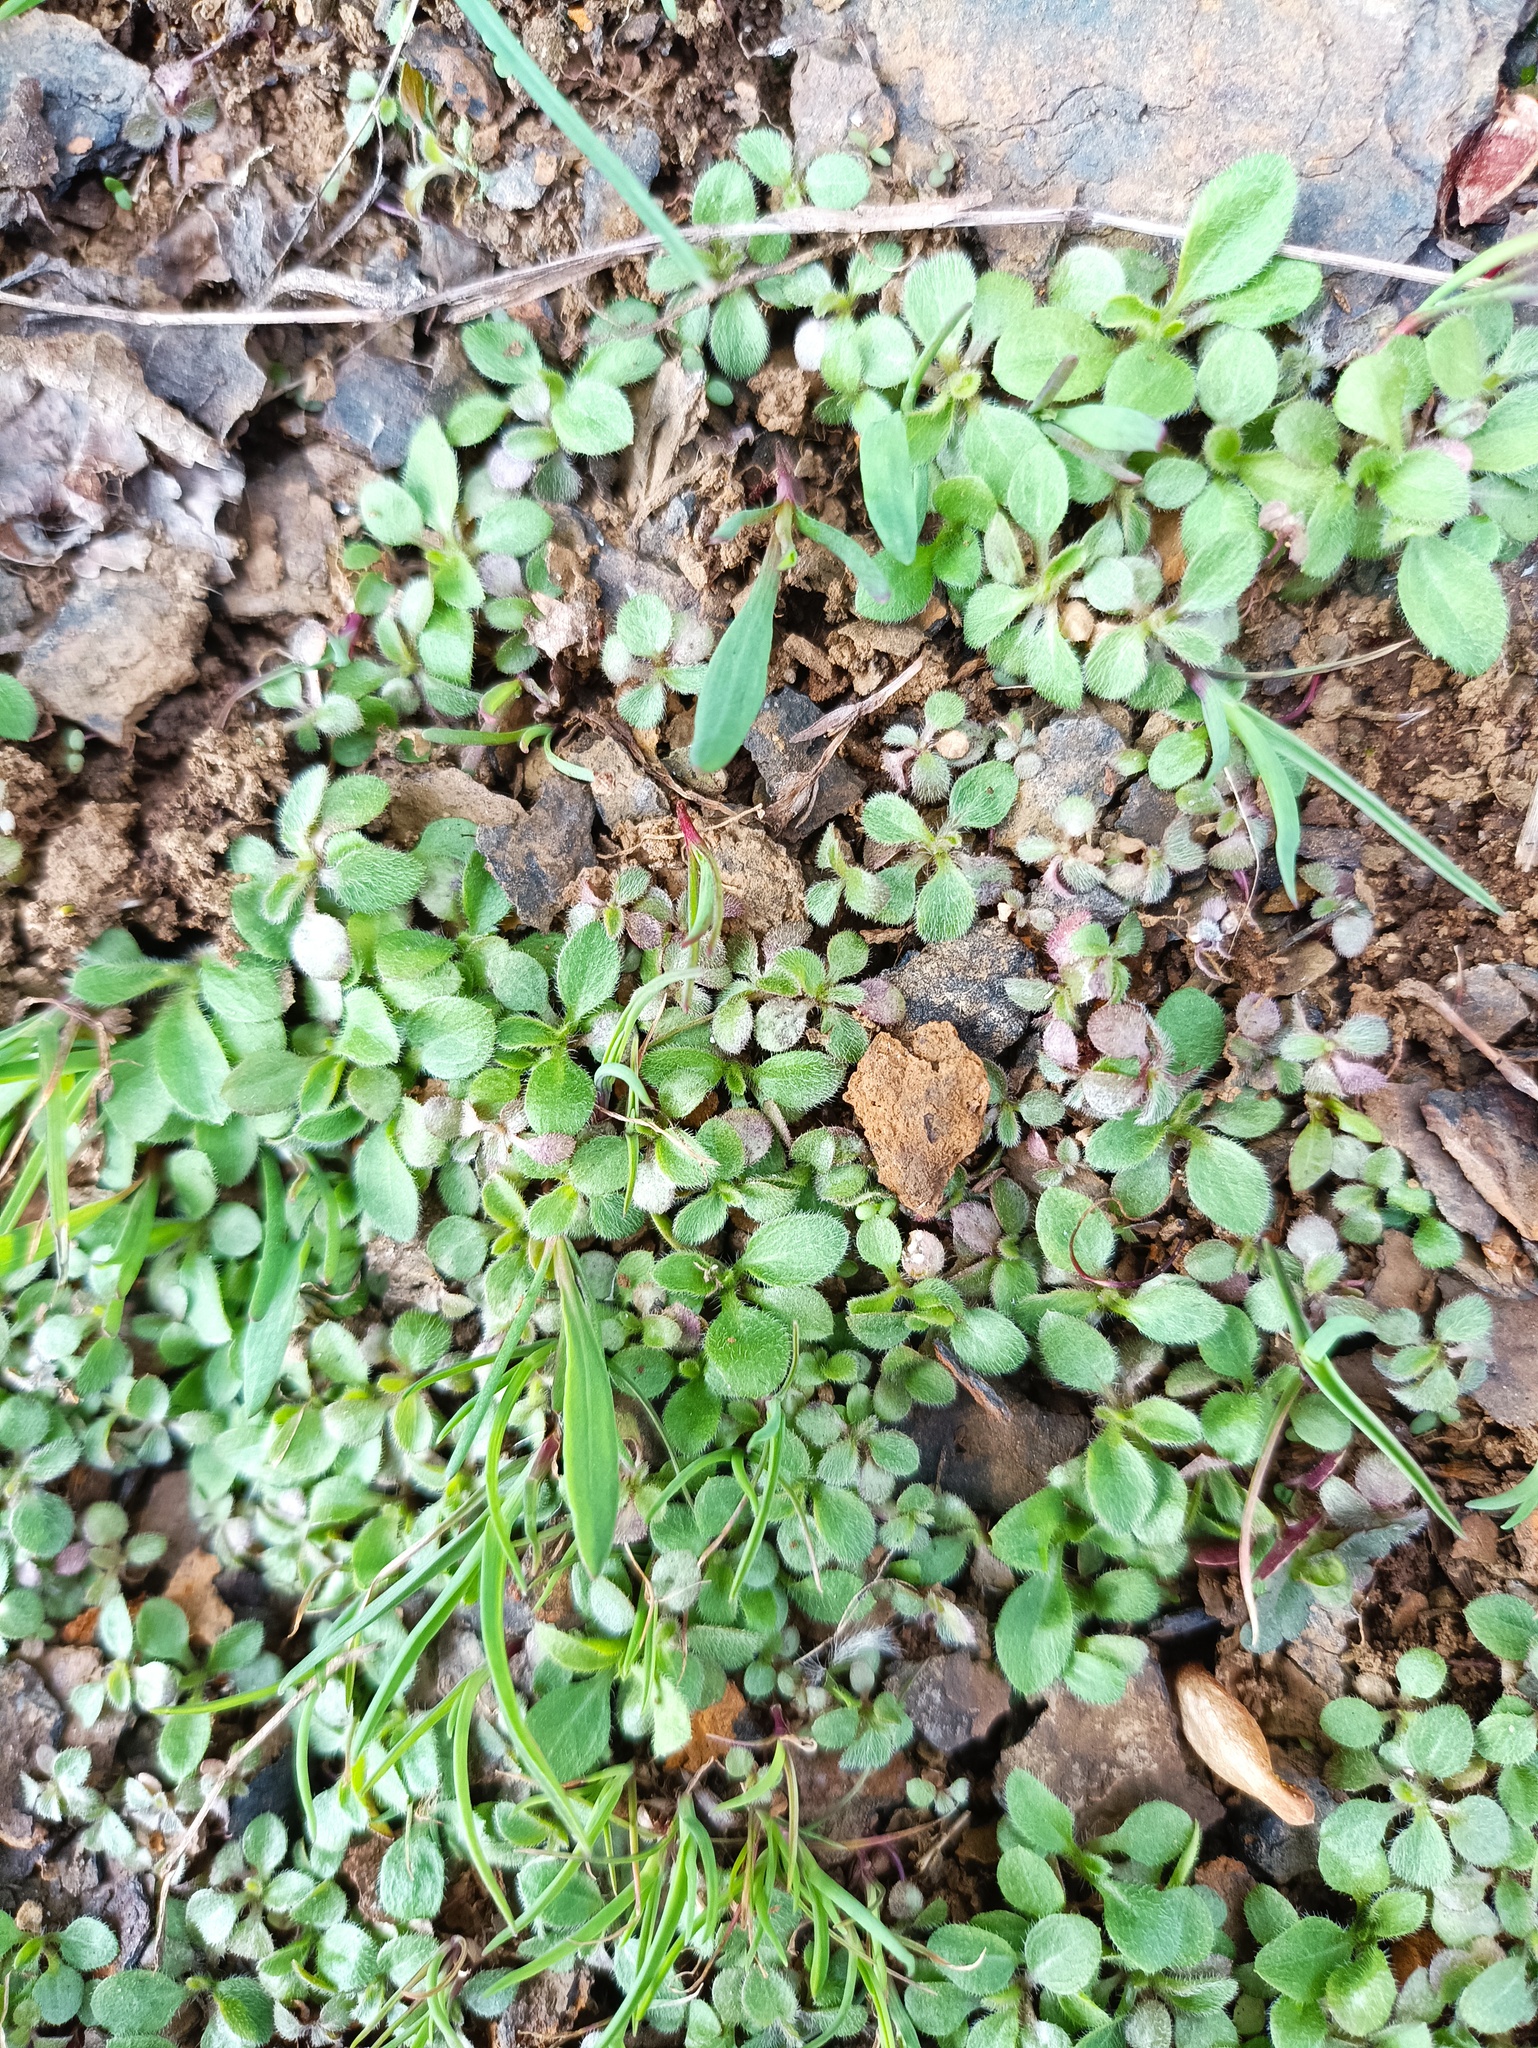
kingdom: Plantae
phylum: Tracheophyta
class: Magnoliopsida
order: Asterales
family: Asteraceae
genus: Erigeron
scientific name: Erigeron canadensis
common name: Canadian fleabane
